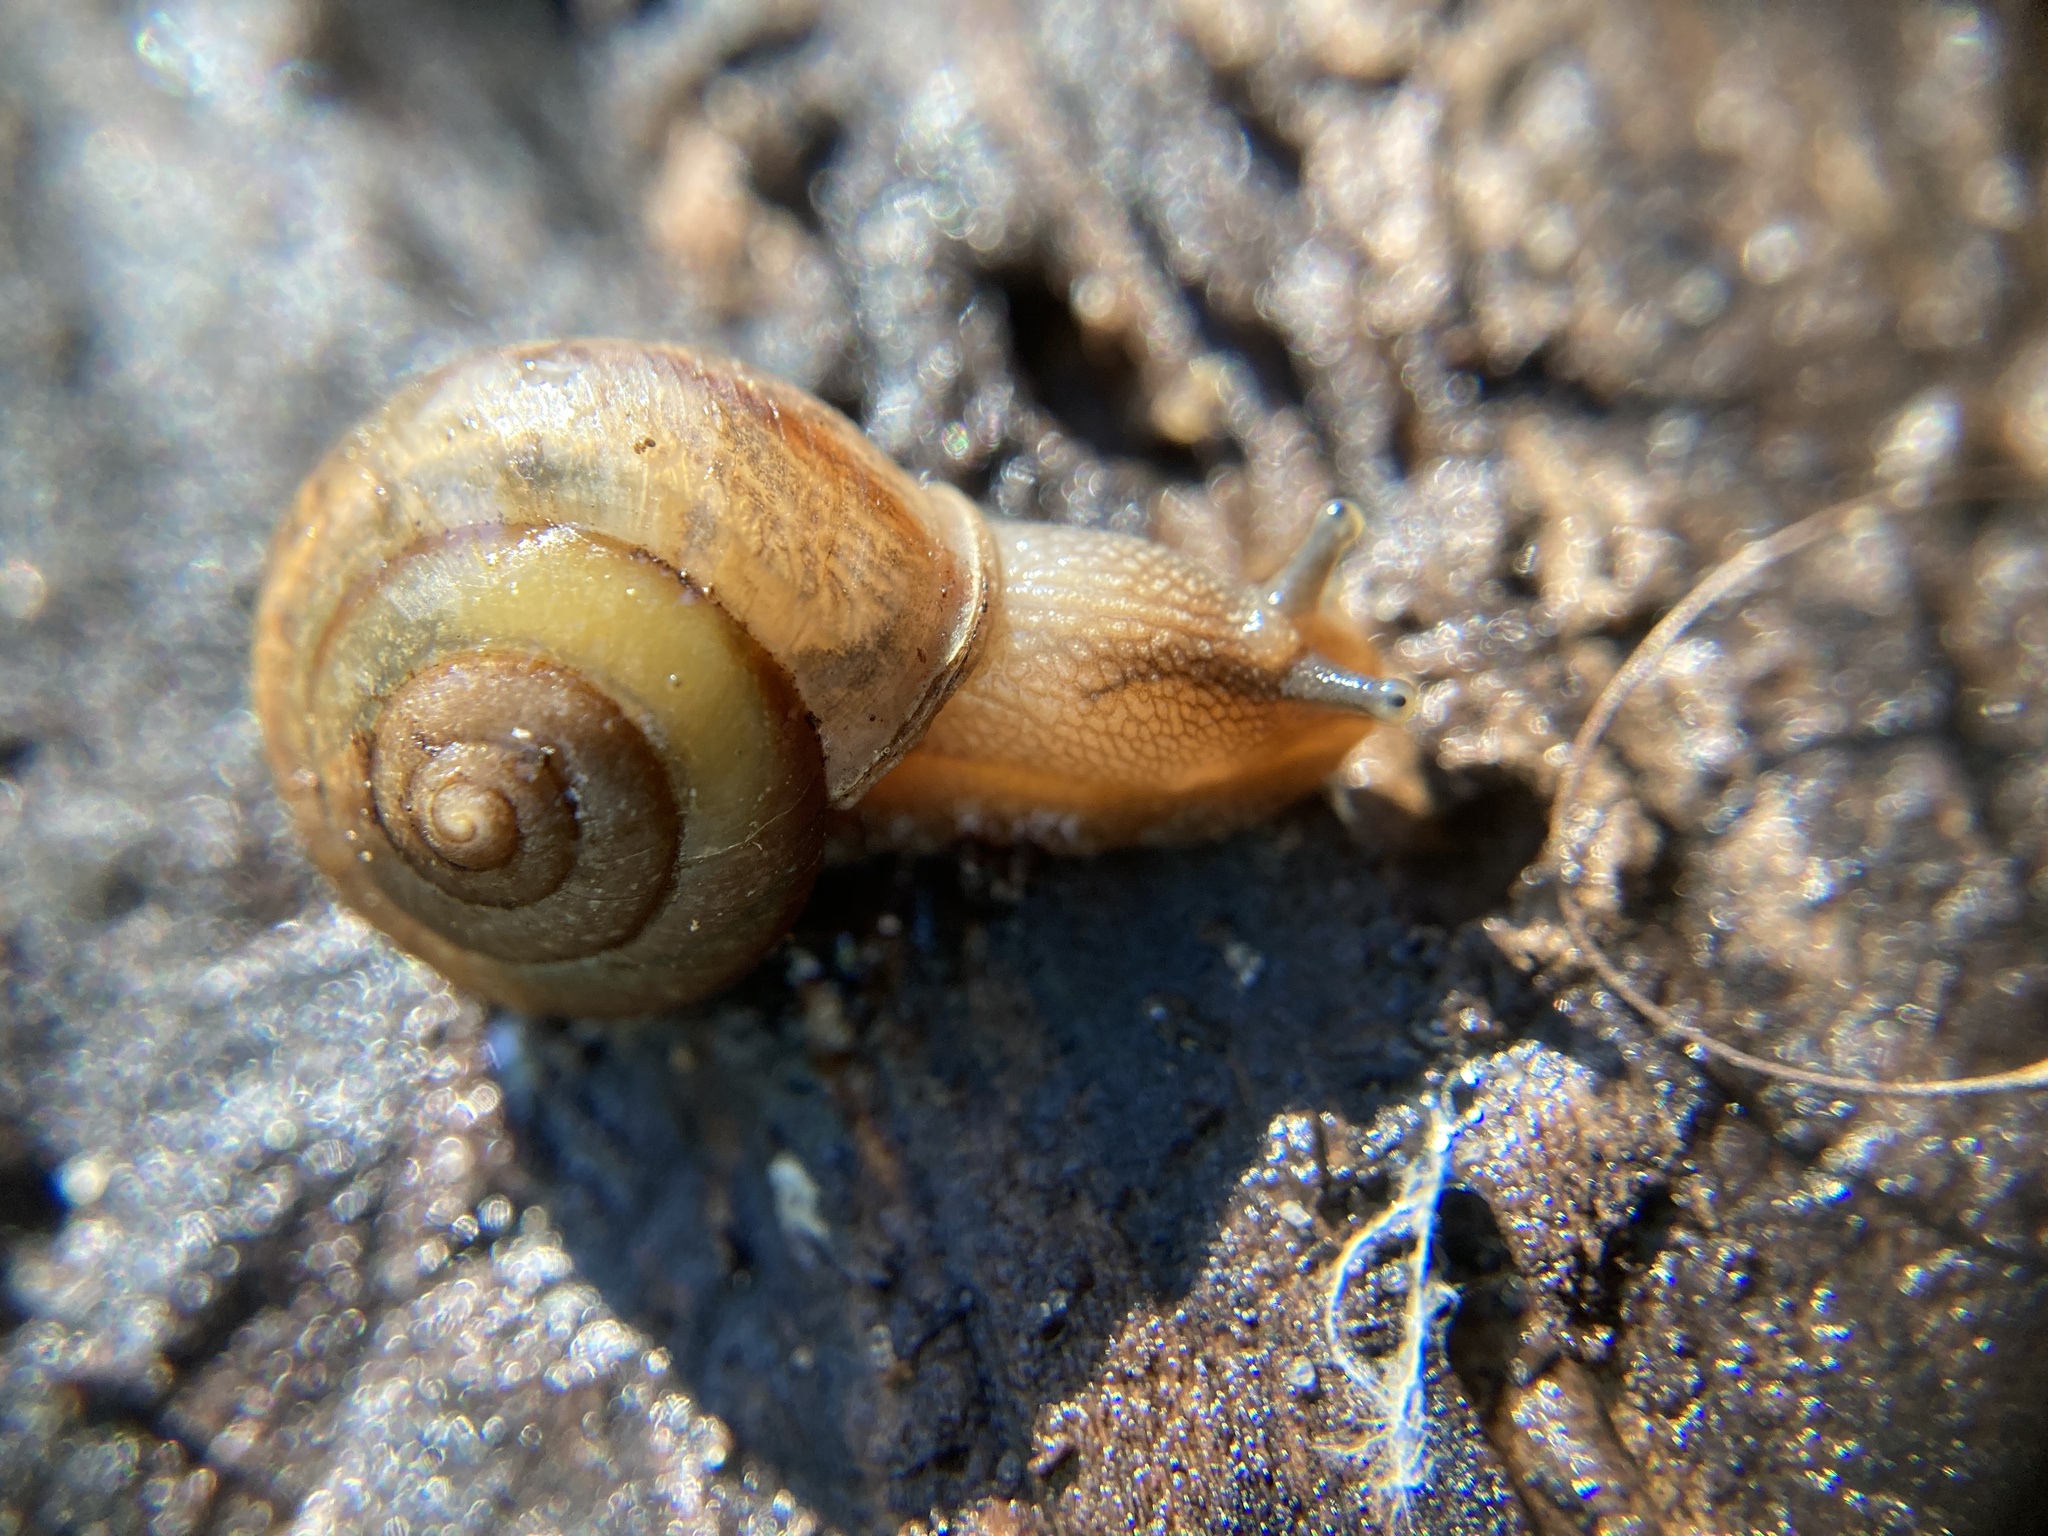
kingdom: Animalia
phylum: Mollusca
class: Gastropoda
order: Stylommatophora
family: Camaenidae
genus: Bradybaena
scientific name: Bradybaena similaris
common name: Asian trampsnail
